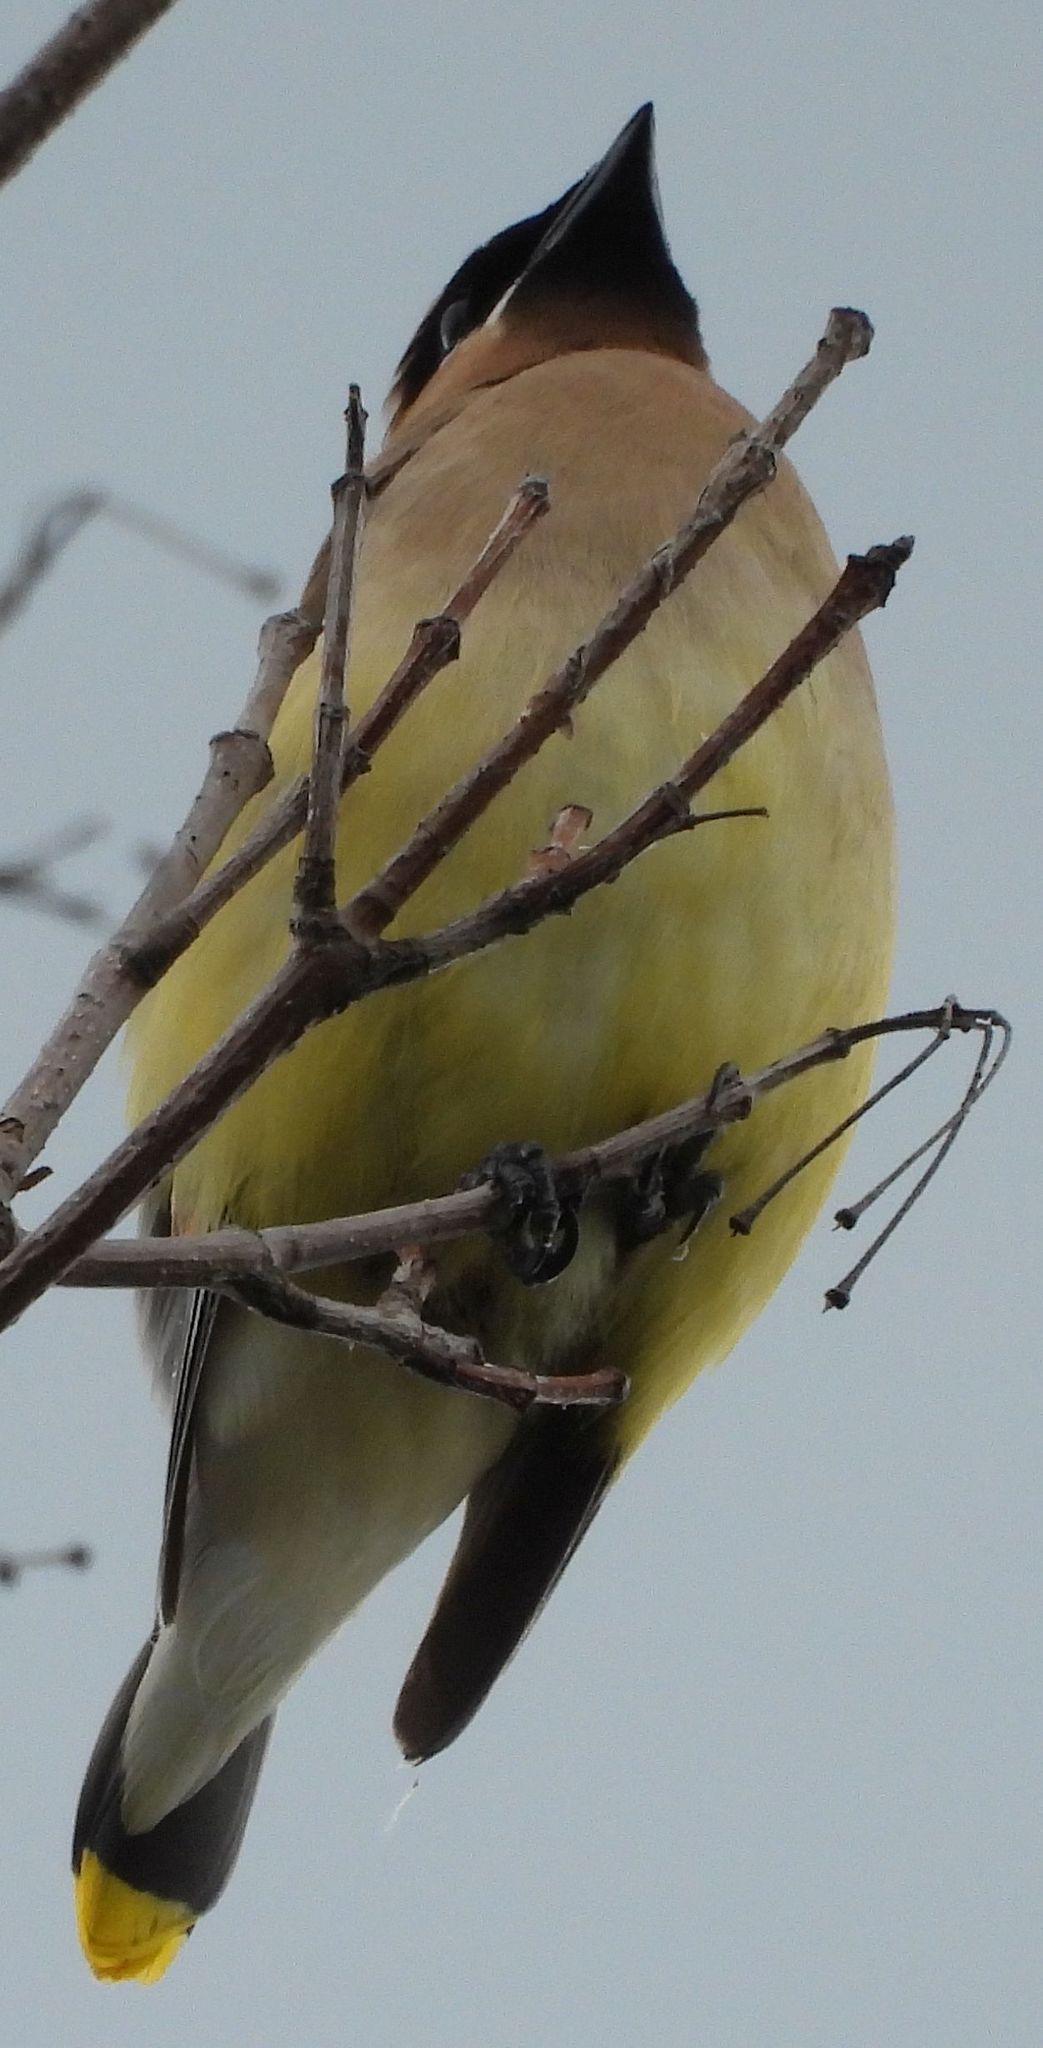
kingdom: Animalia
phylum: Chordata
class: Aves
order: Passeriformes
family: Bombycillidae
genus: Bombycilla
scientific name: Bombycilla cedrorum
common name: Cedar waxwing
